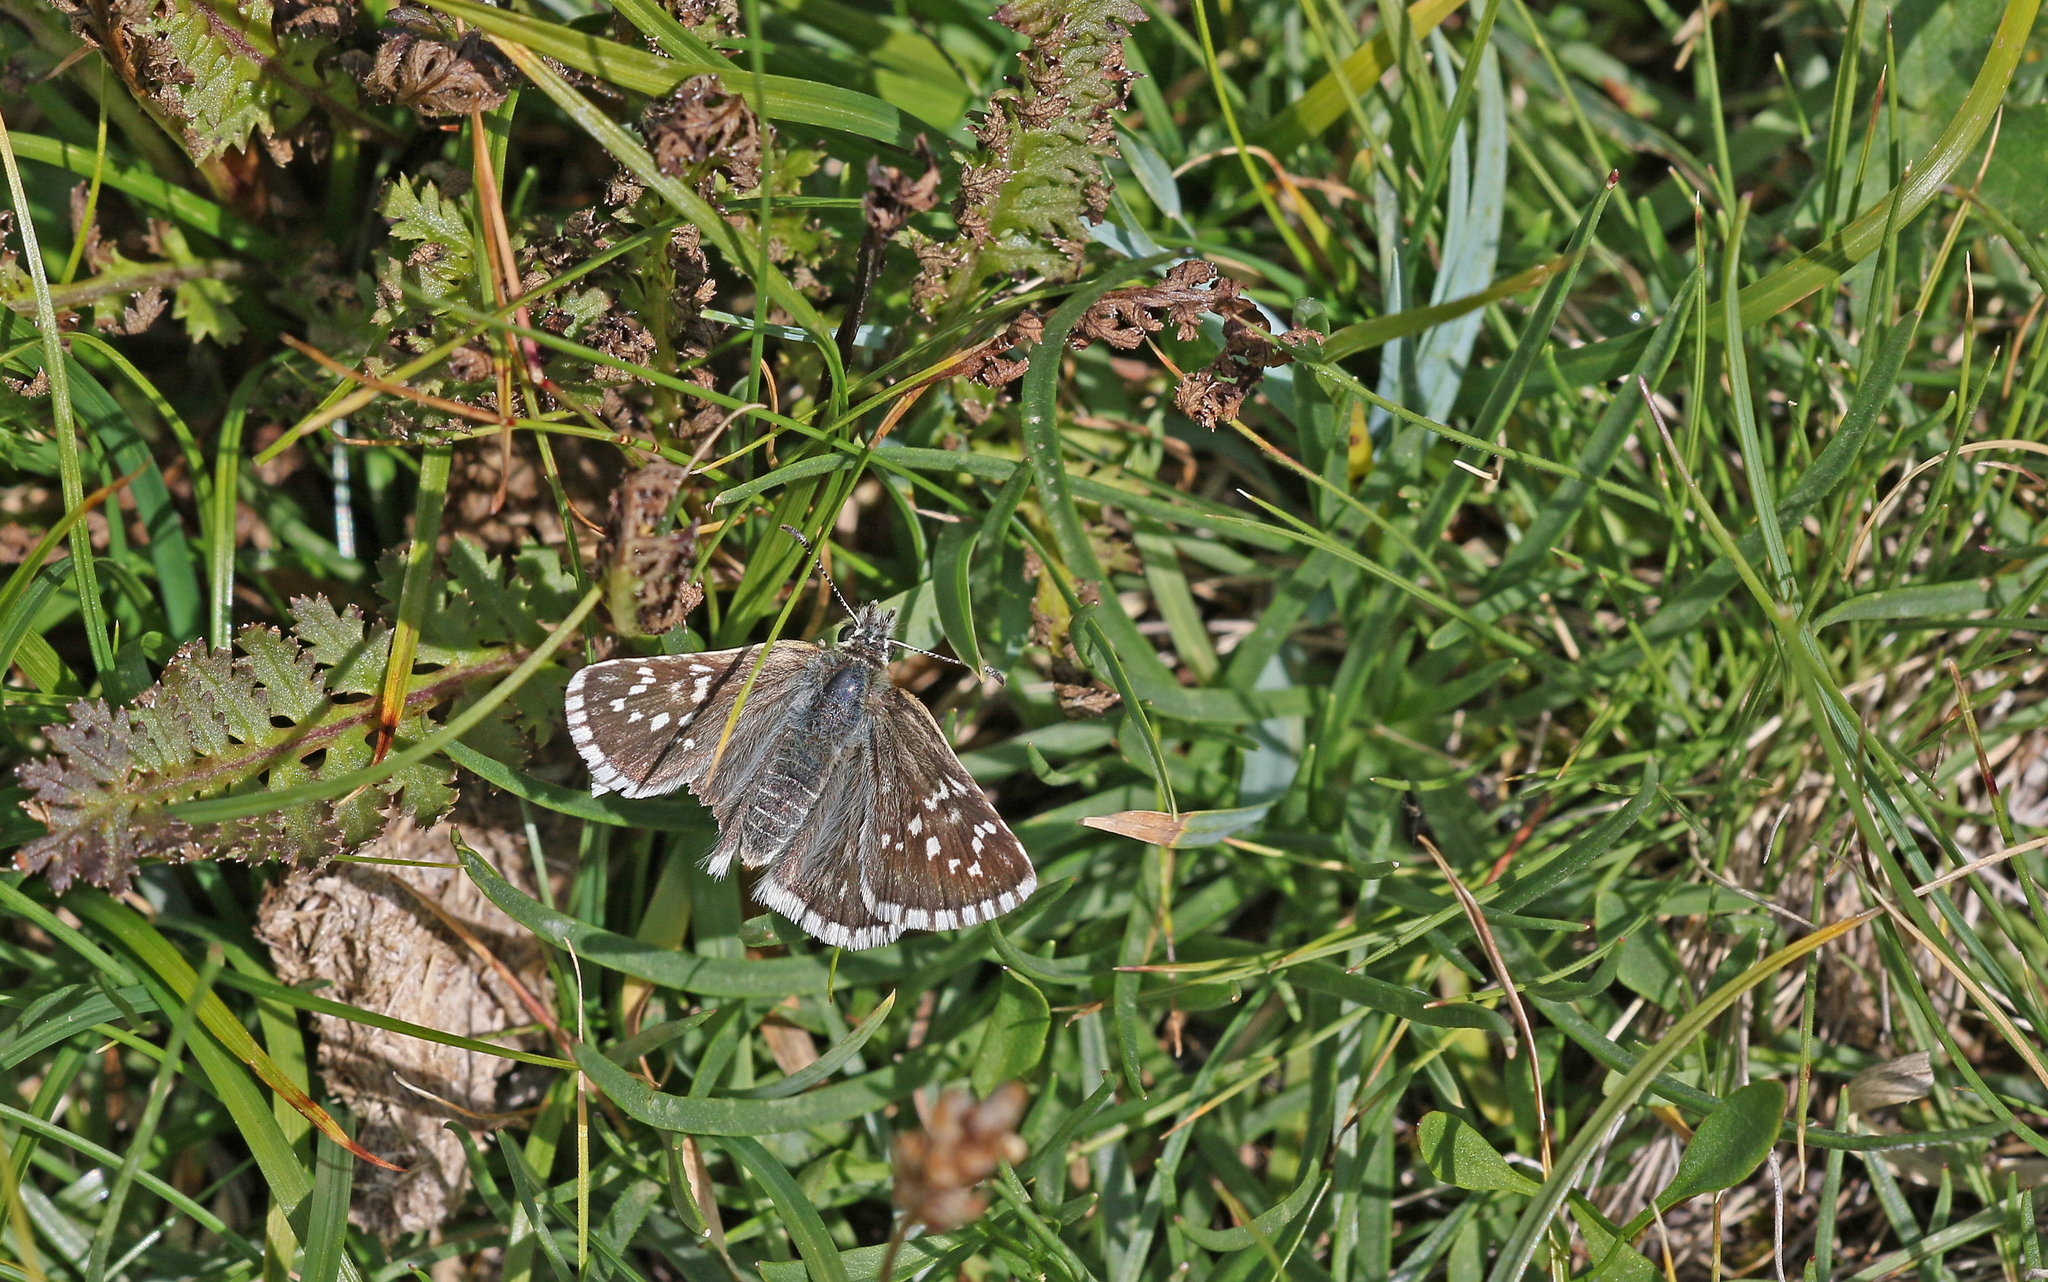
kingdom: Animalia
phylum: Arthropoda
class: Insecta
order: Lepidoptera
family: Hesperiidae
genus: Pyrgus
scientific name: Pyrgus fritillarius
